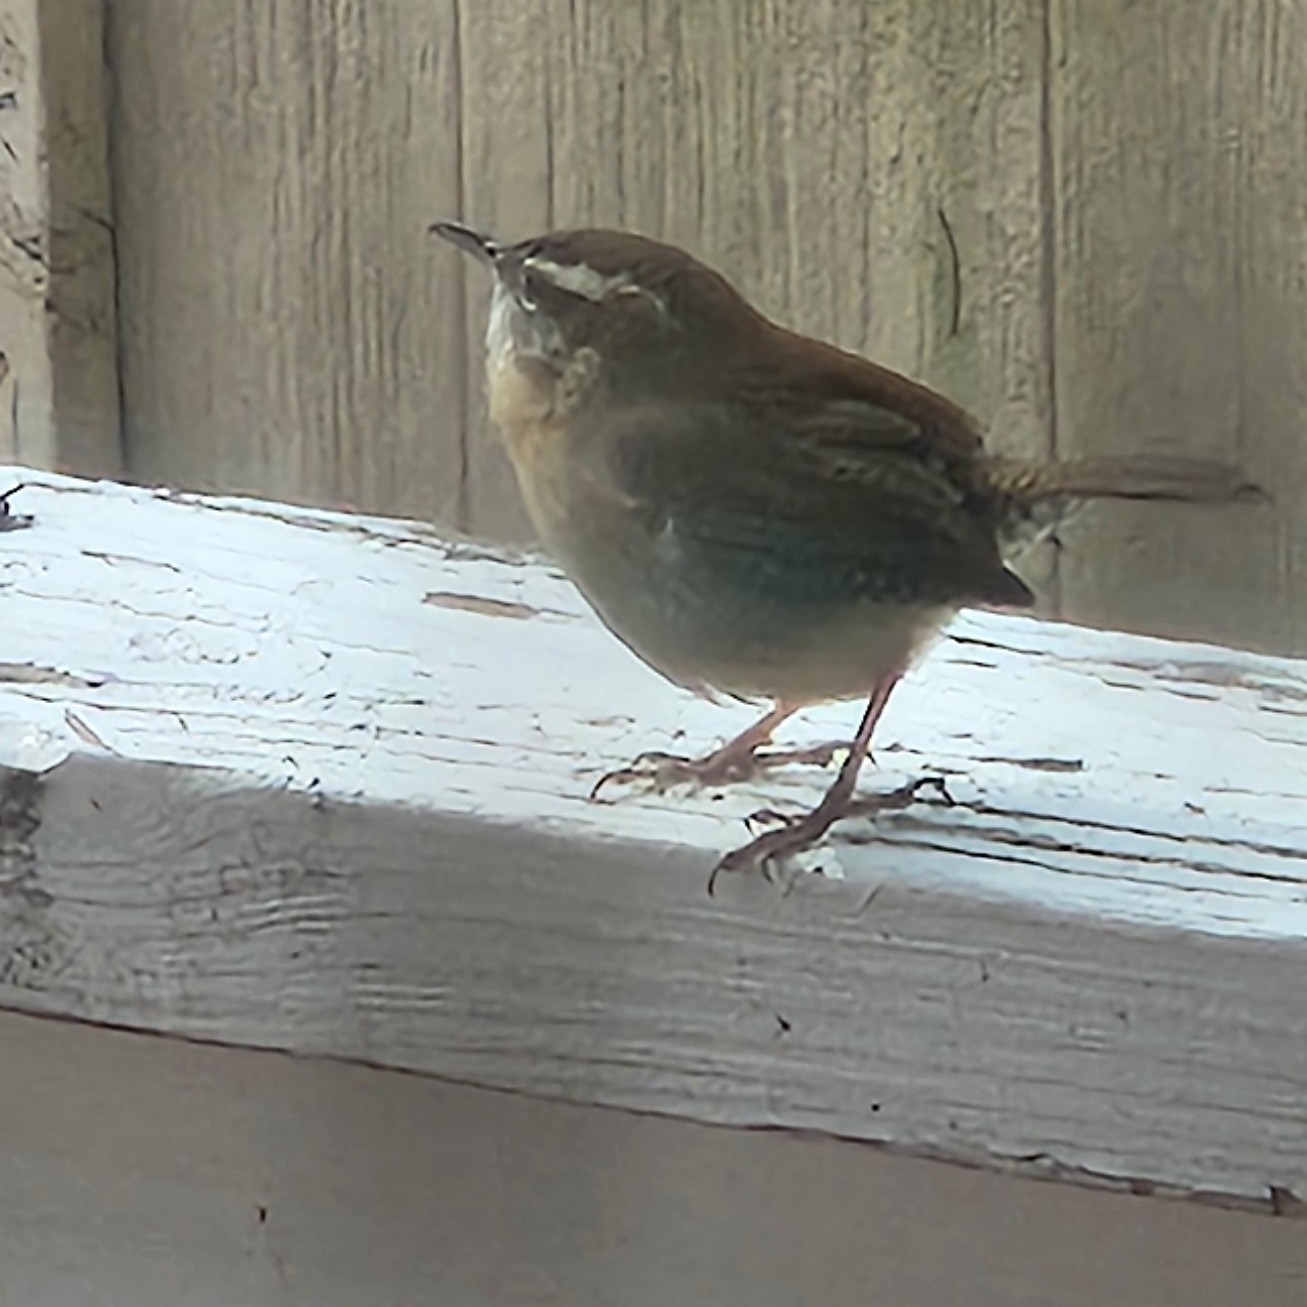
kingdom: Animalia
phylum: Chordata
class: Aves
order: Passeriformes
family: Troglodytidae
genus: Thryothorus
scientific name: Thryothorus ludovicianus
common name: Carolina wren
